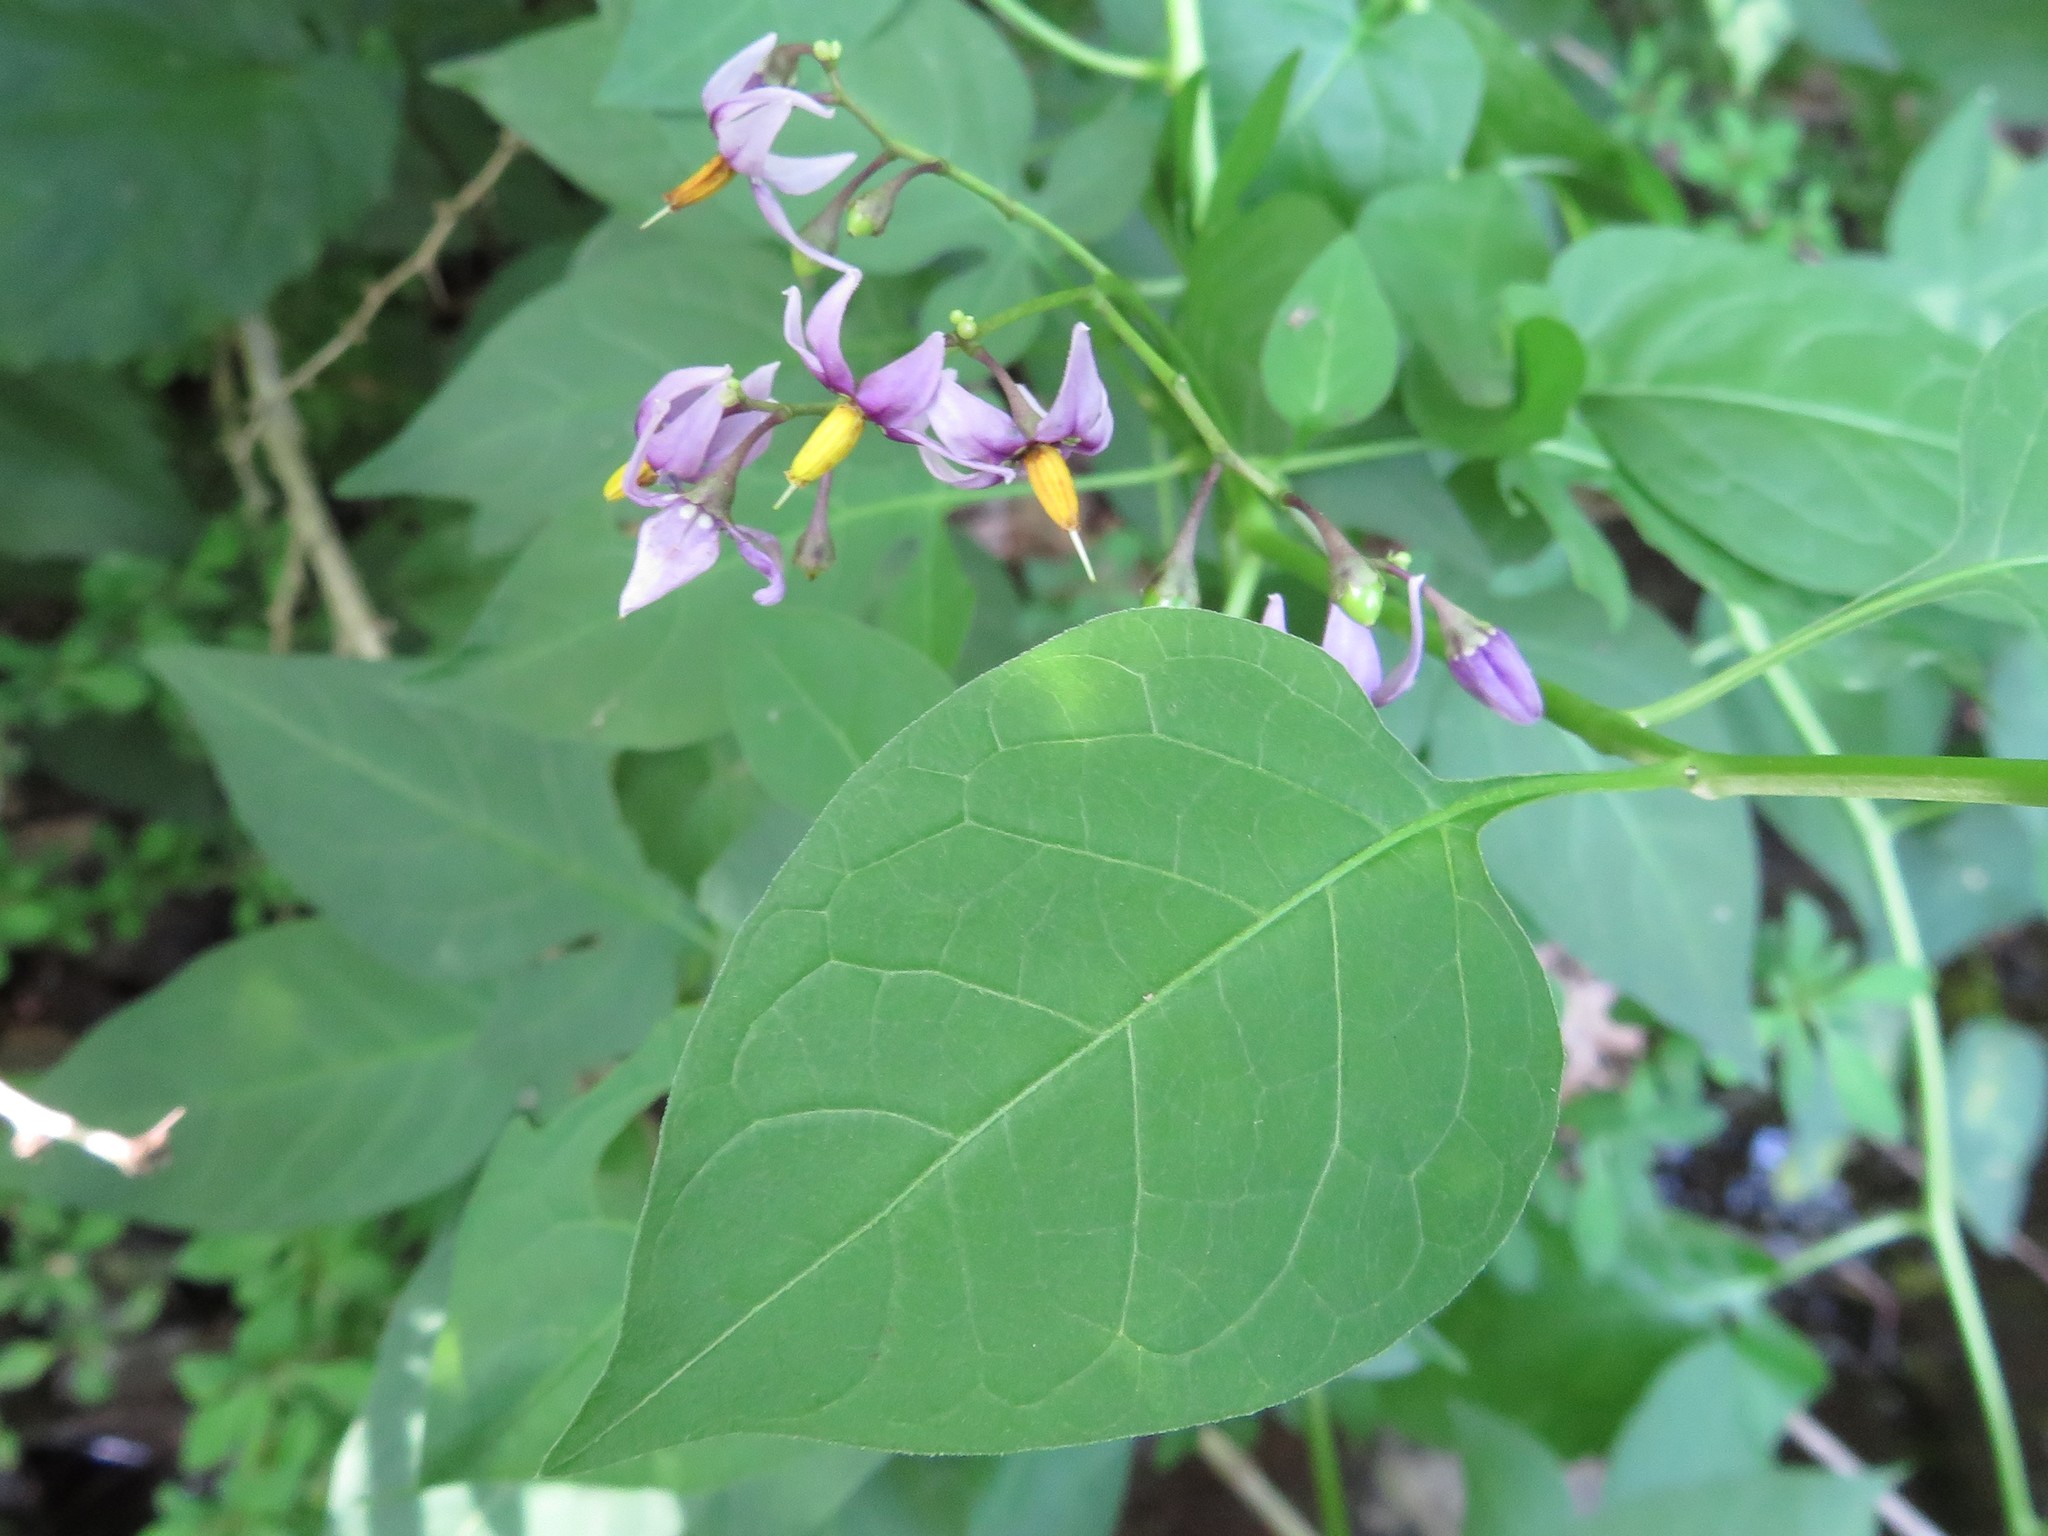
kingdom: Plantae
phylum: Tracheophyta
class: Magnoliopsida
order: Solanales
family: Solanaceae
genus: Solanum
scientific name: Solanum dulcamara
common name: Climbing nightshade
